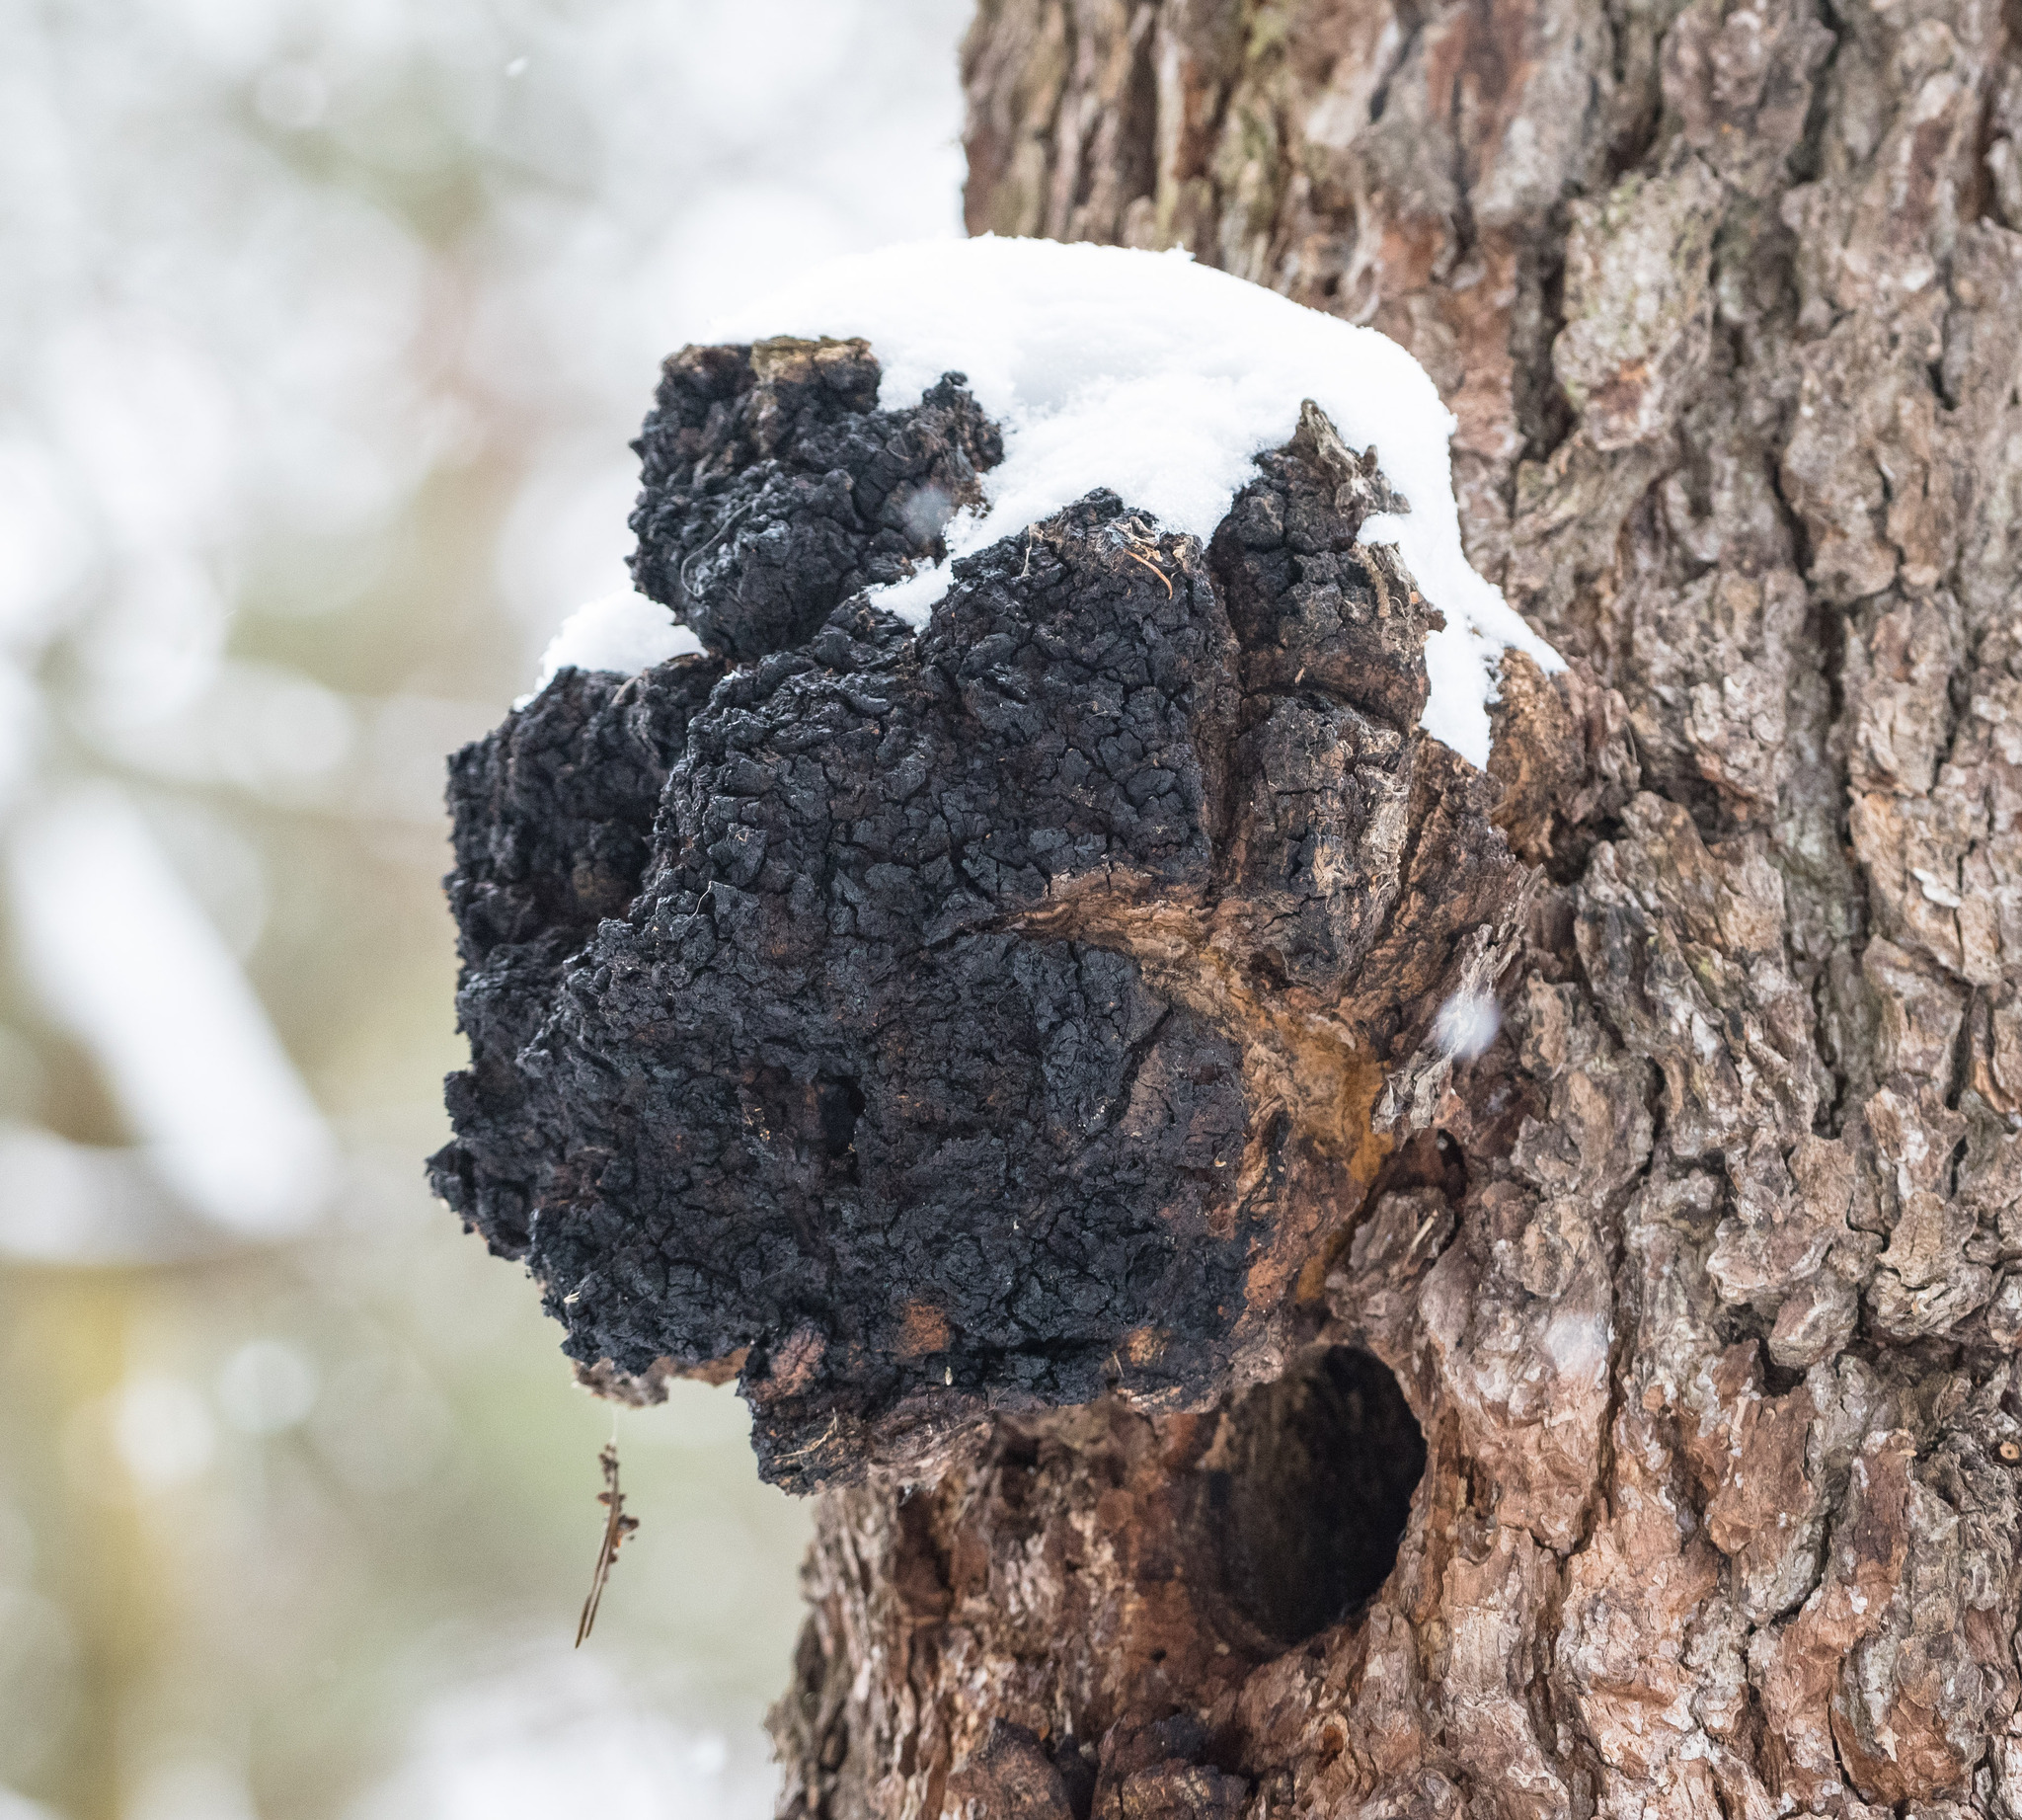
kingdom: Fungi
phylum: Basidiomycota
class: Agaricomycetes
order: Hymenochaetales
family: Hymenochaetaceae
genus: Inonotus
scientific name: Inonotus obliquus
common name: Chaga
